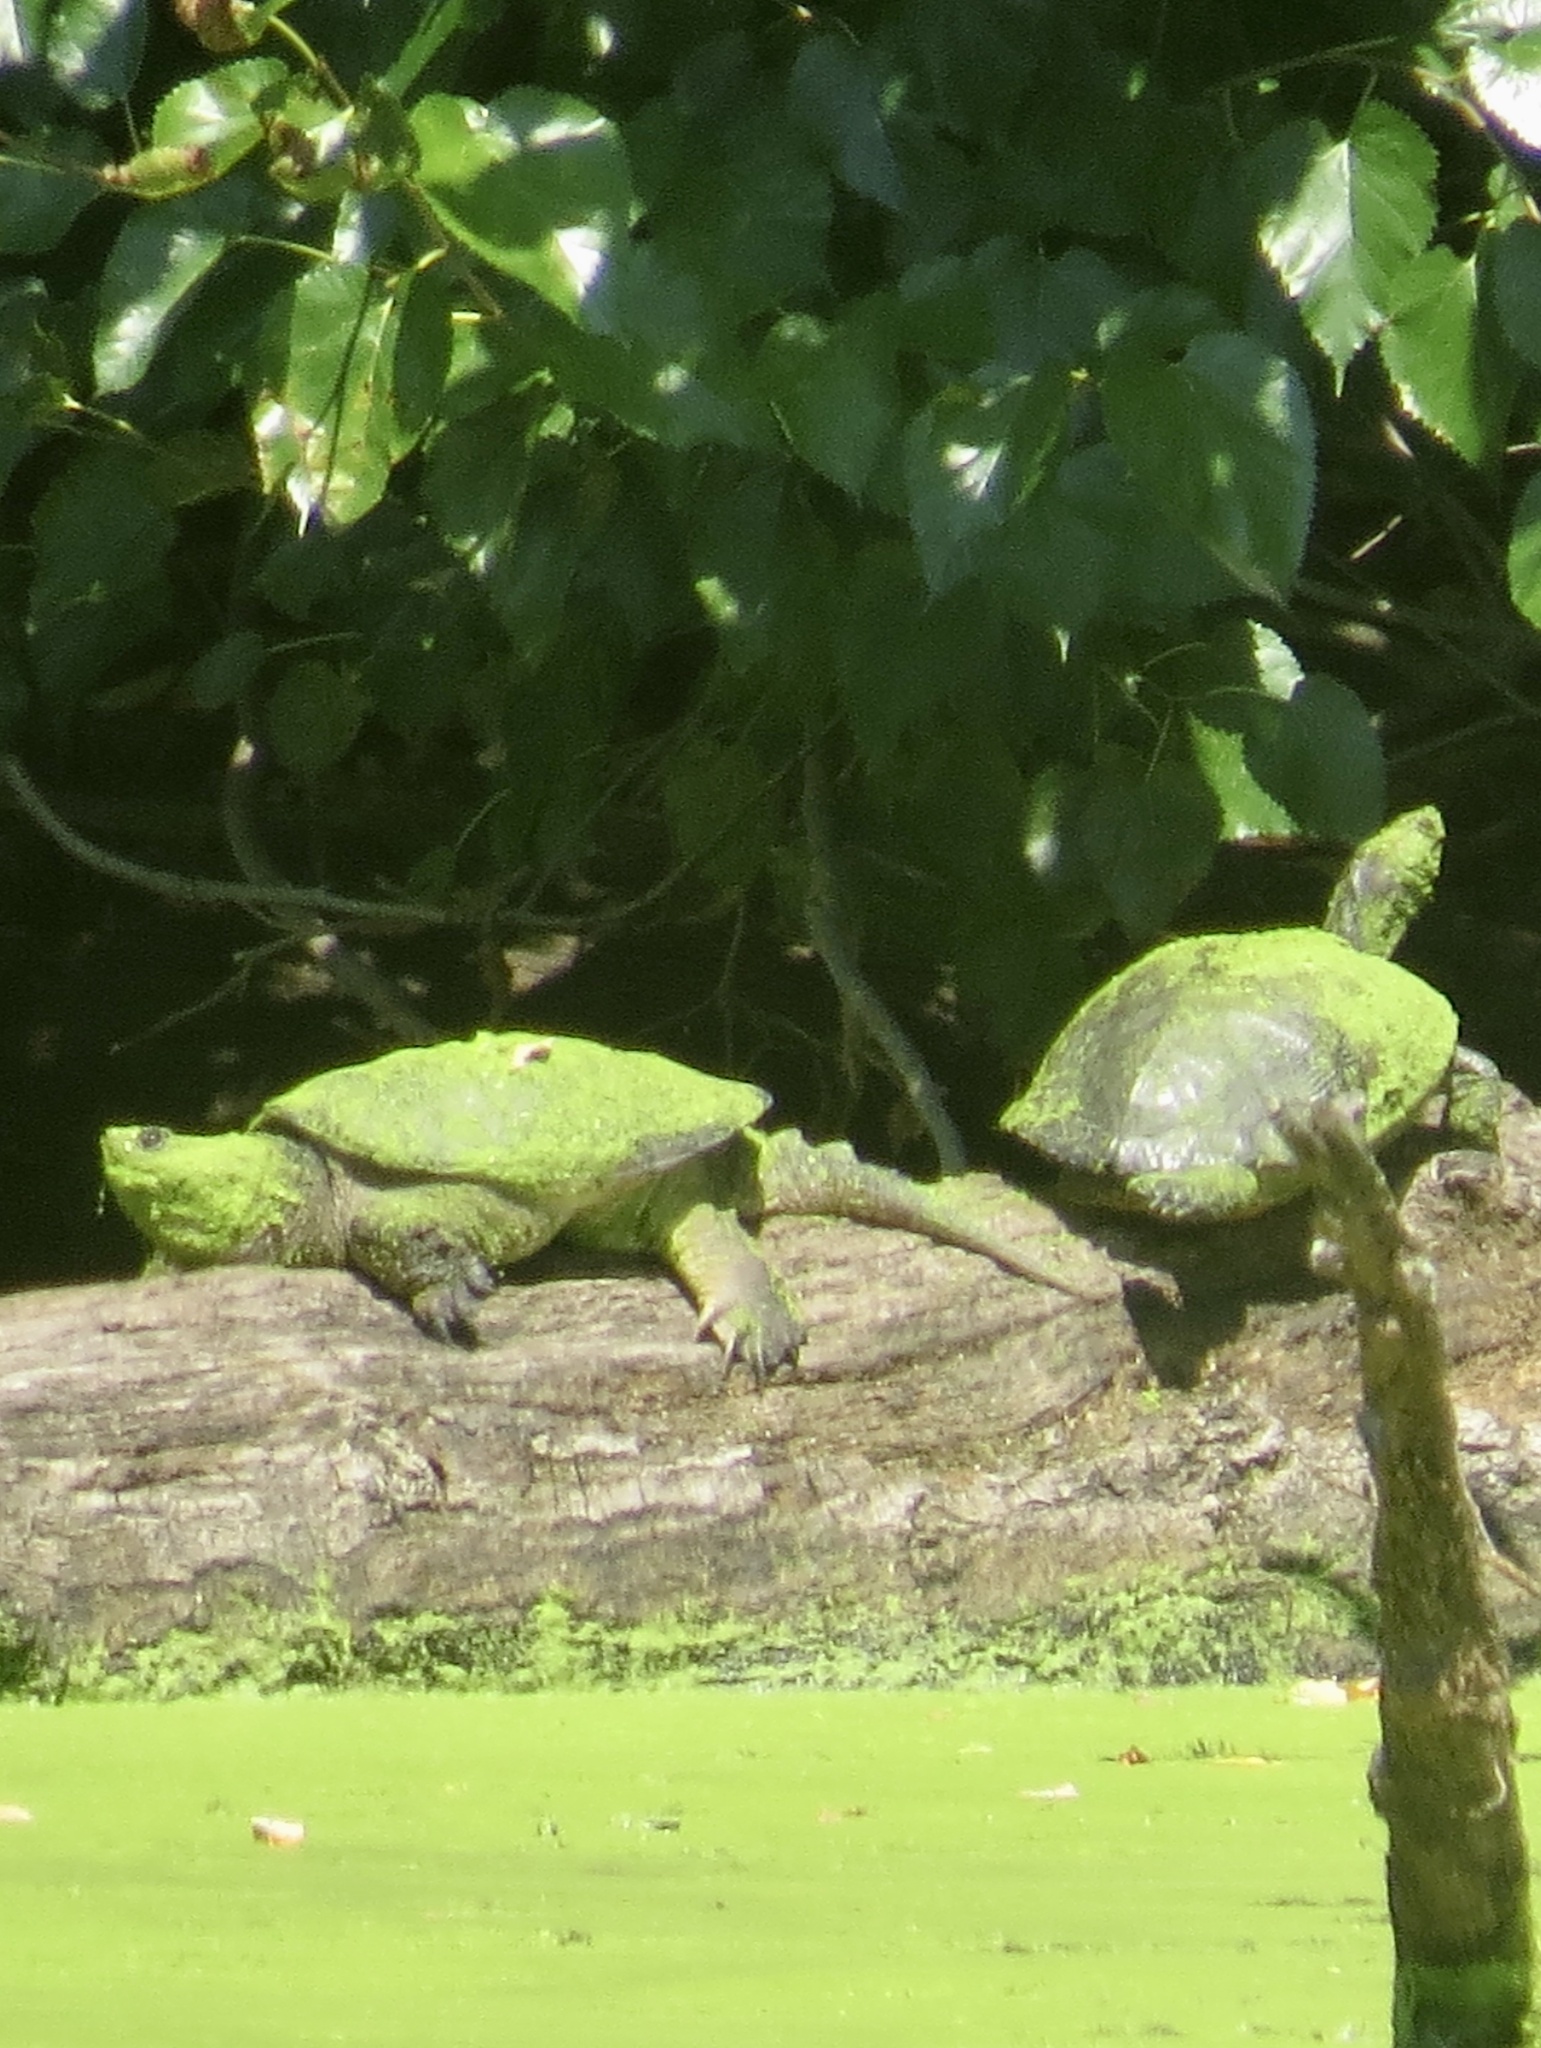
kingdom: Animalia
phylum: Chordata
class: Testudines
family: Chelydridae
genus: Chelydra
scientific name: Chelydra serpentina
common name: Common snapping turtle
